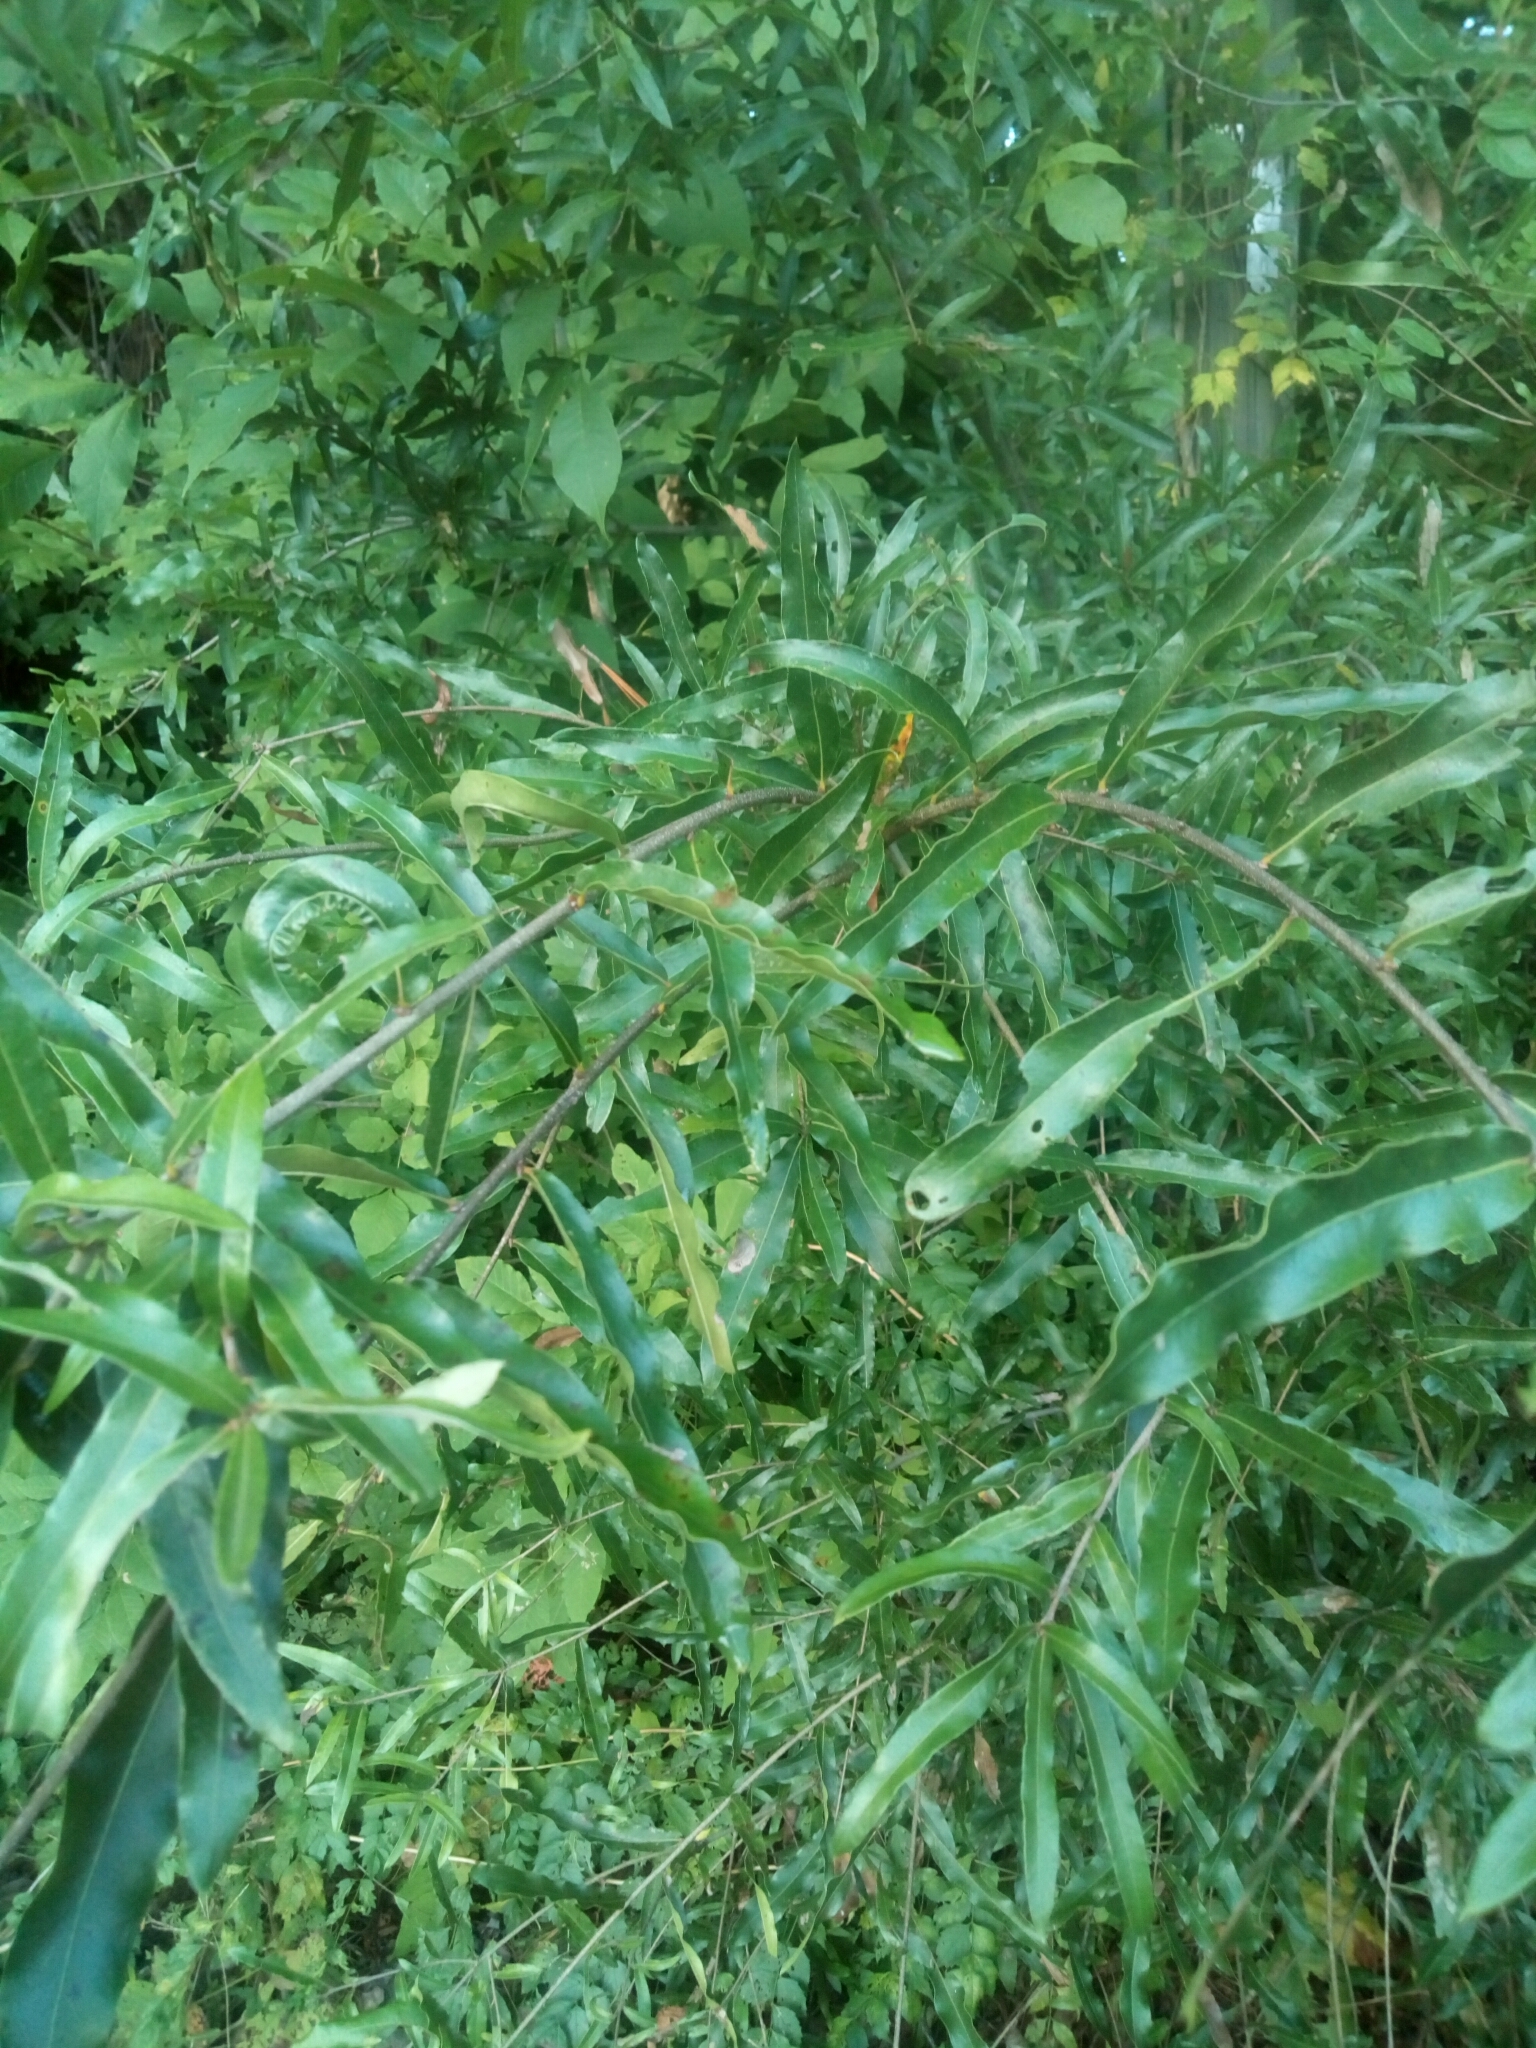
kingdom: Plantae
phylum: Tracheophyta
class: Magnoliopsida
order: Fagales
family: Fagaceae
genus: Quercus
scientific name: Quercus phellos
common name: Willow oak
